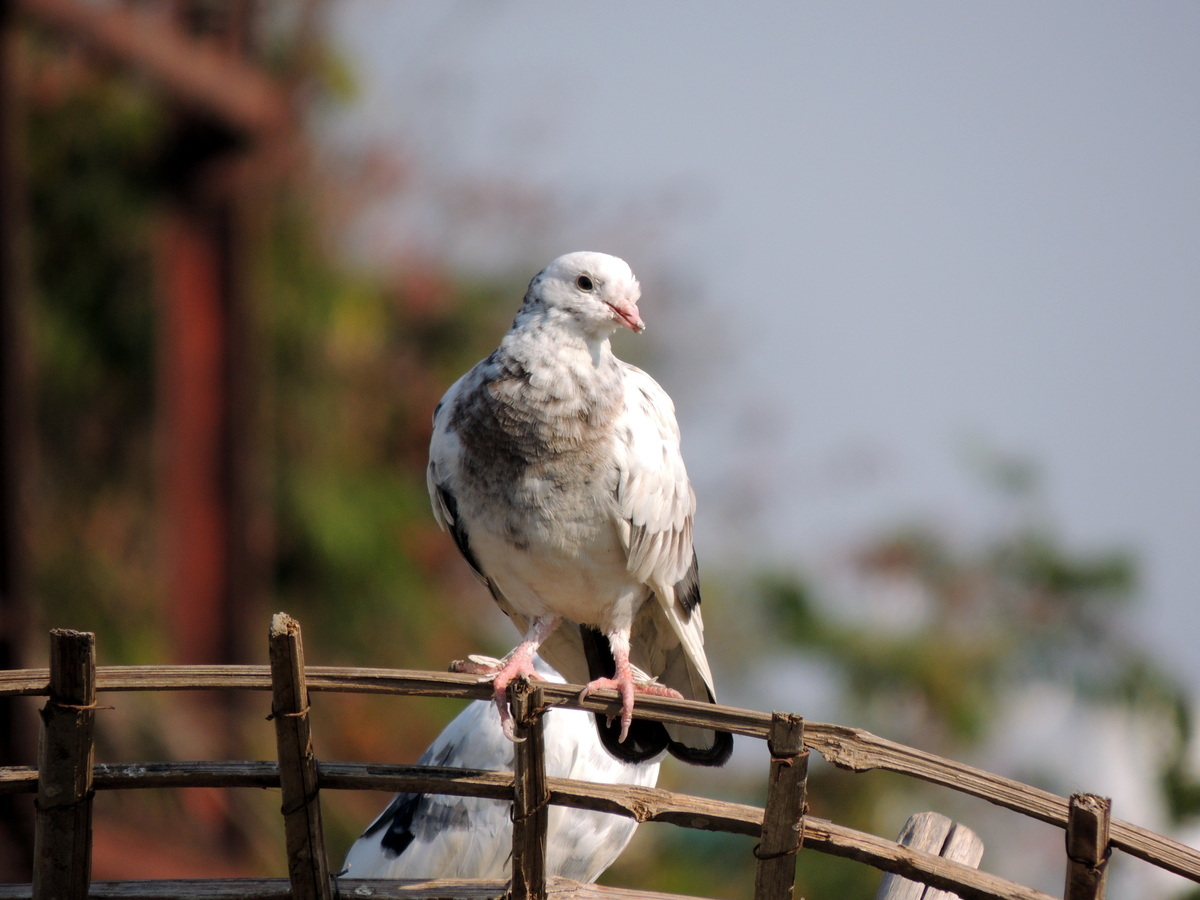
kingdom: Animalia
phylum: Chordata
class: Aves
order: Columbiformes
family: Columbidae
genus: Columba
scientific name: Columba livia
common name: Rock pigeon
